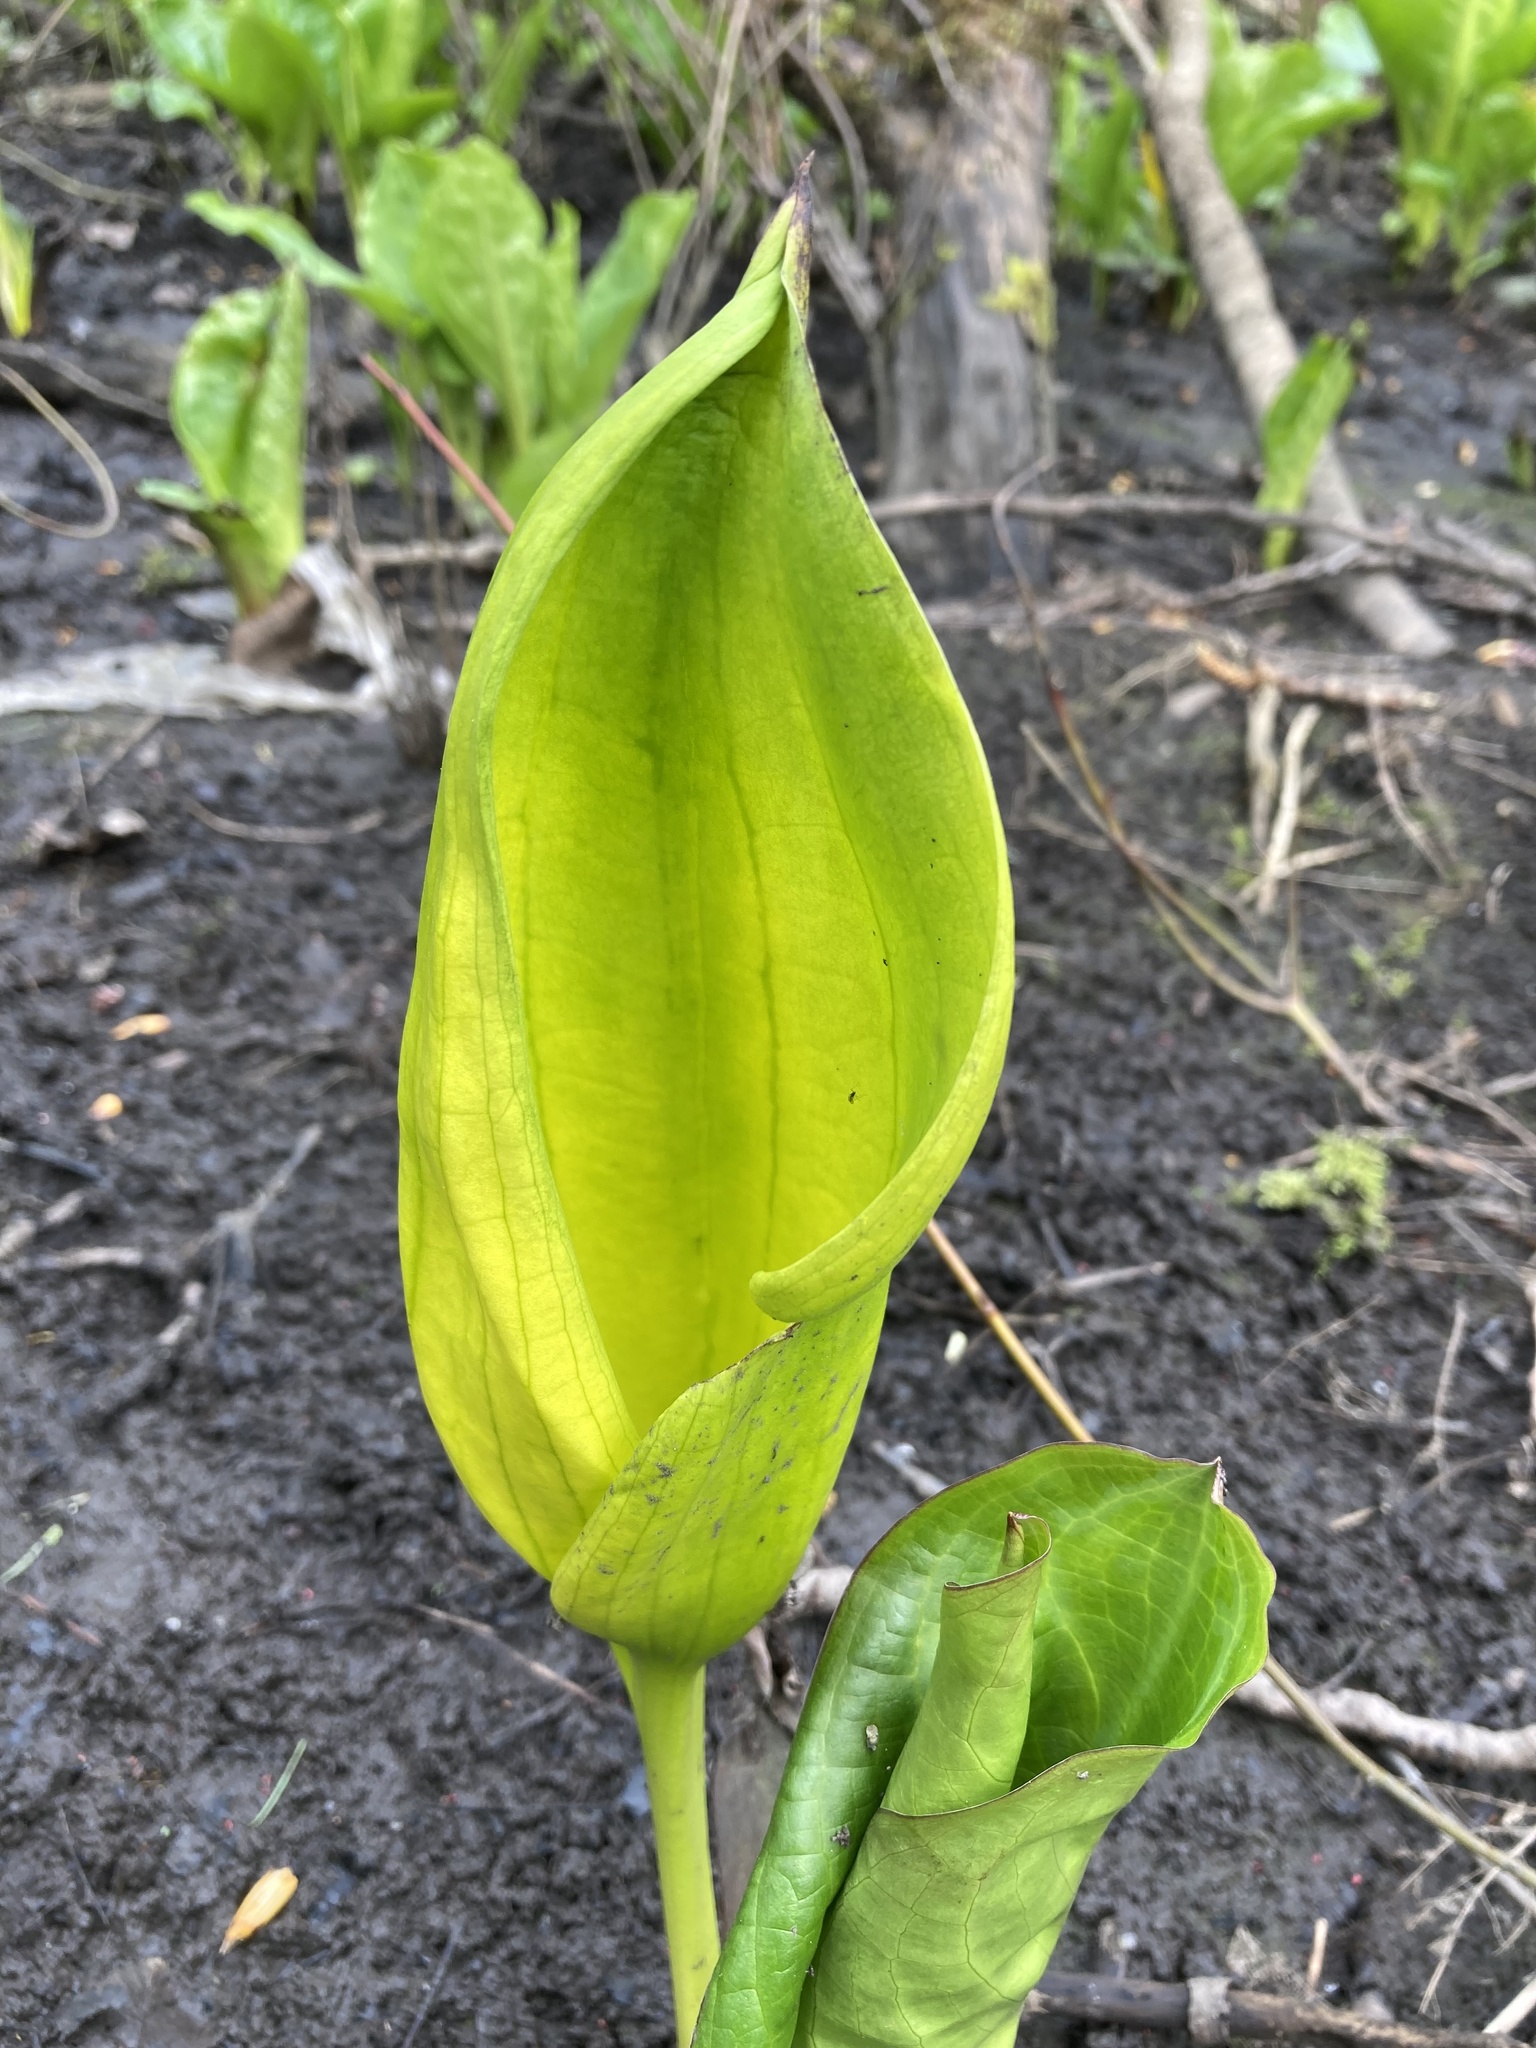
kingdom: Plantae
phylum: Tracheophyta
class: Liliopsida
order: Alismatales
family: Araceae
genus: Lysichiton
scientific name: Lysichiton americanus
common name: American skunk cabbage
